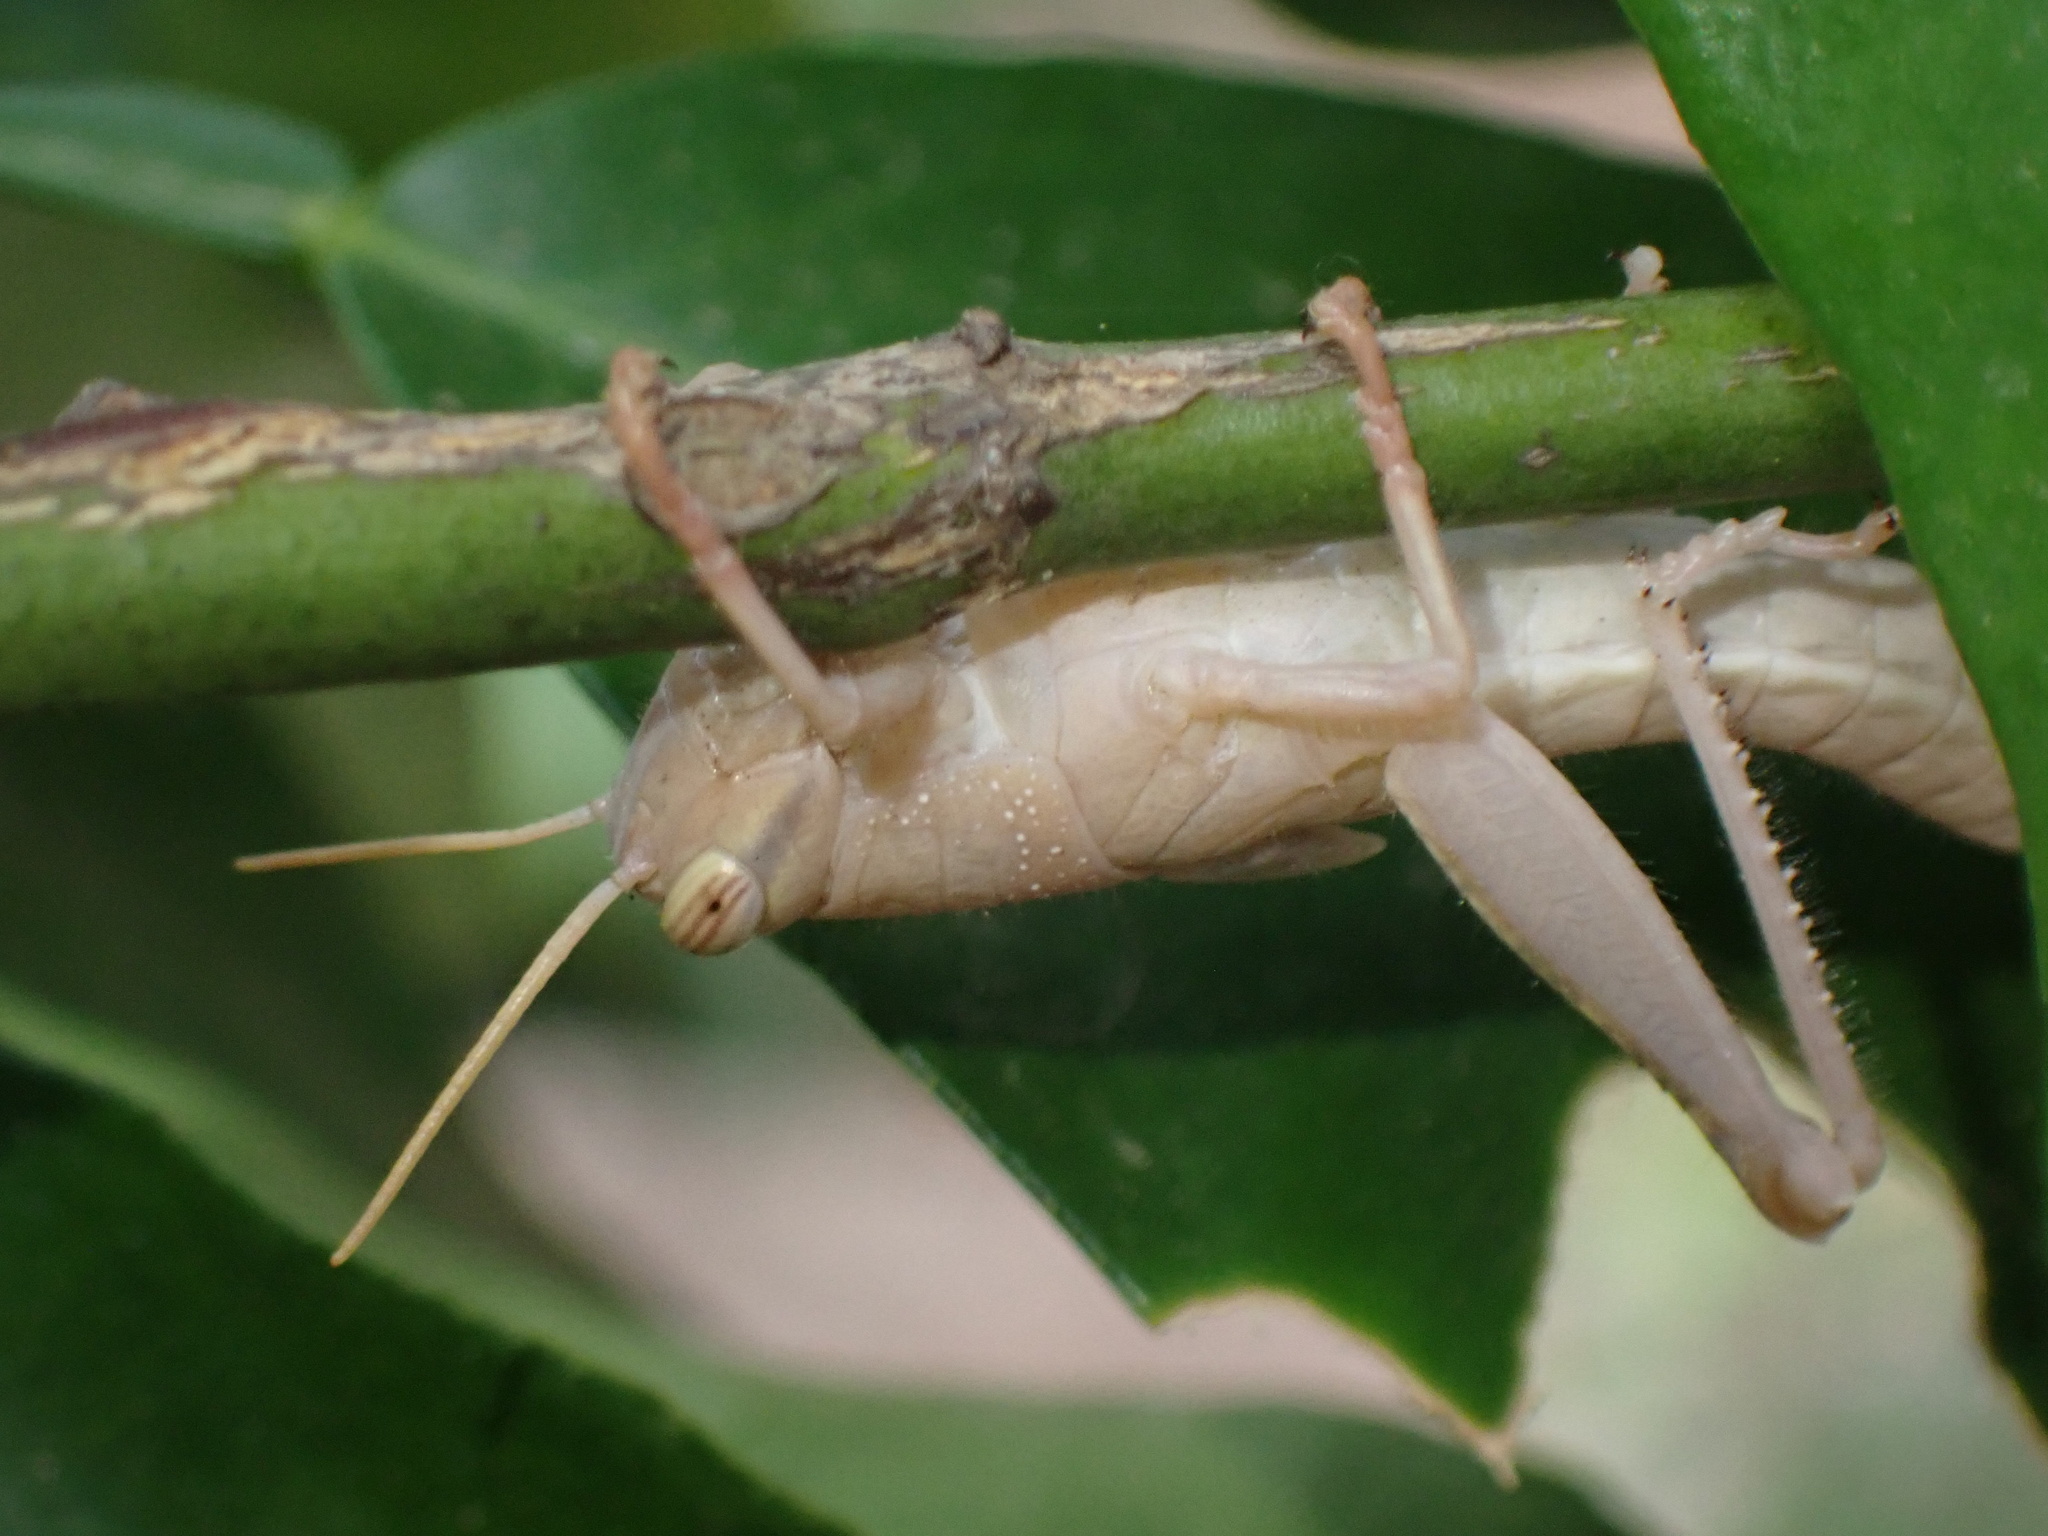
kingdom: Animalia
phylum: Arthropoda
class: Insecta
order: Orthoptera
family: Acrididae
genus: Anacridium
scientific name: Anacridium aegyptium
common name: Egyptian grasshopper
